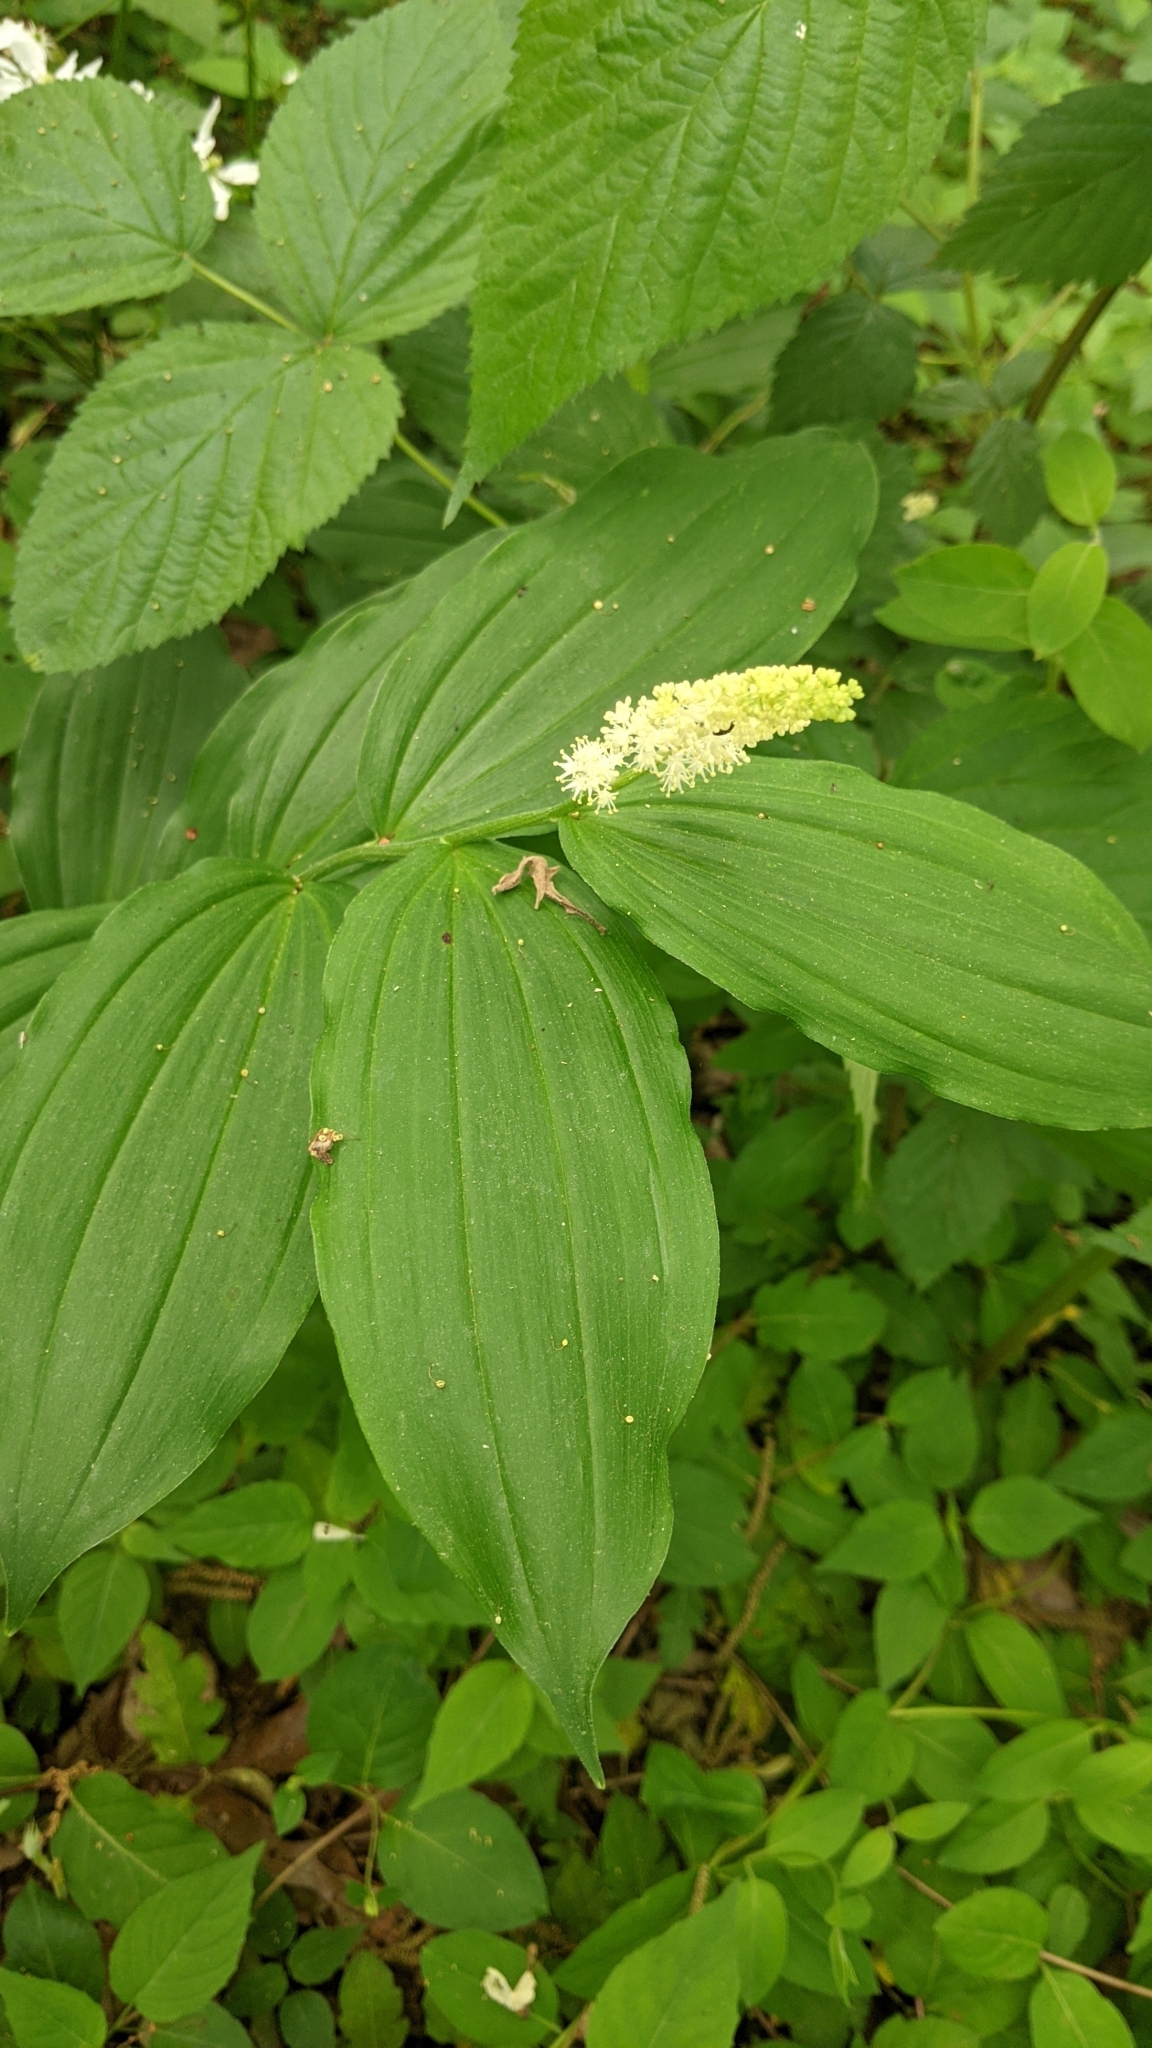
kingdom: Plantae
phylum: Tracheophyta
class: Liliopsida
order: Asparagales
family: Asparagaceae
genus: Maianthemum
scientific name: Maianthemum racemosum
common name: False spikenard
